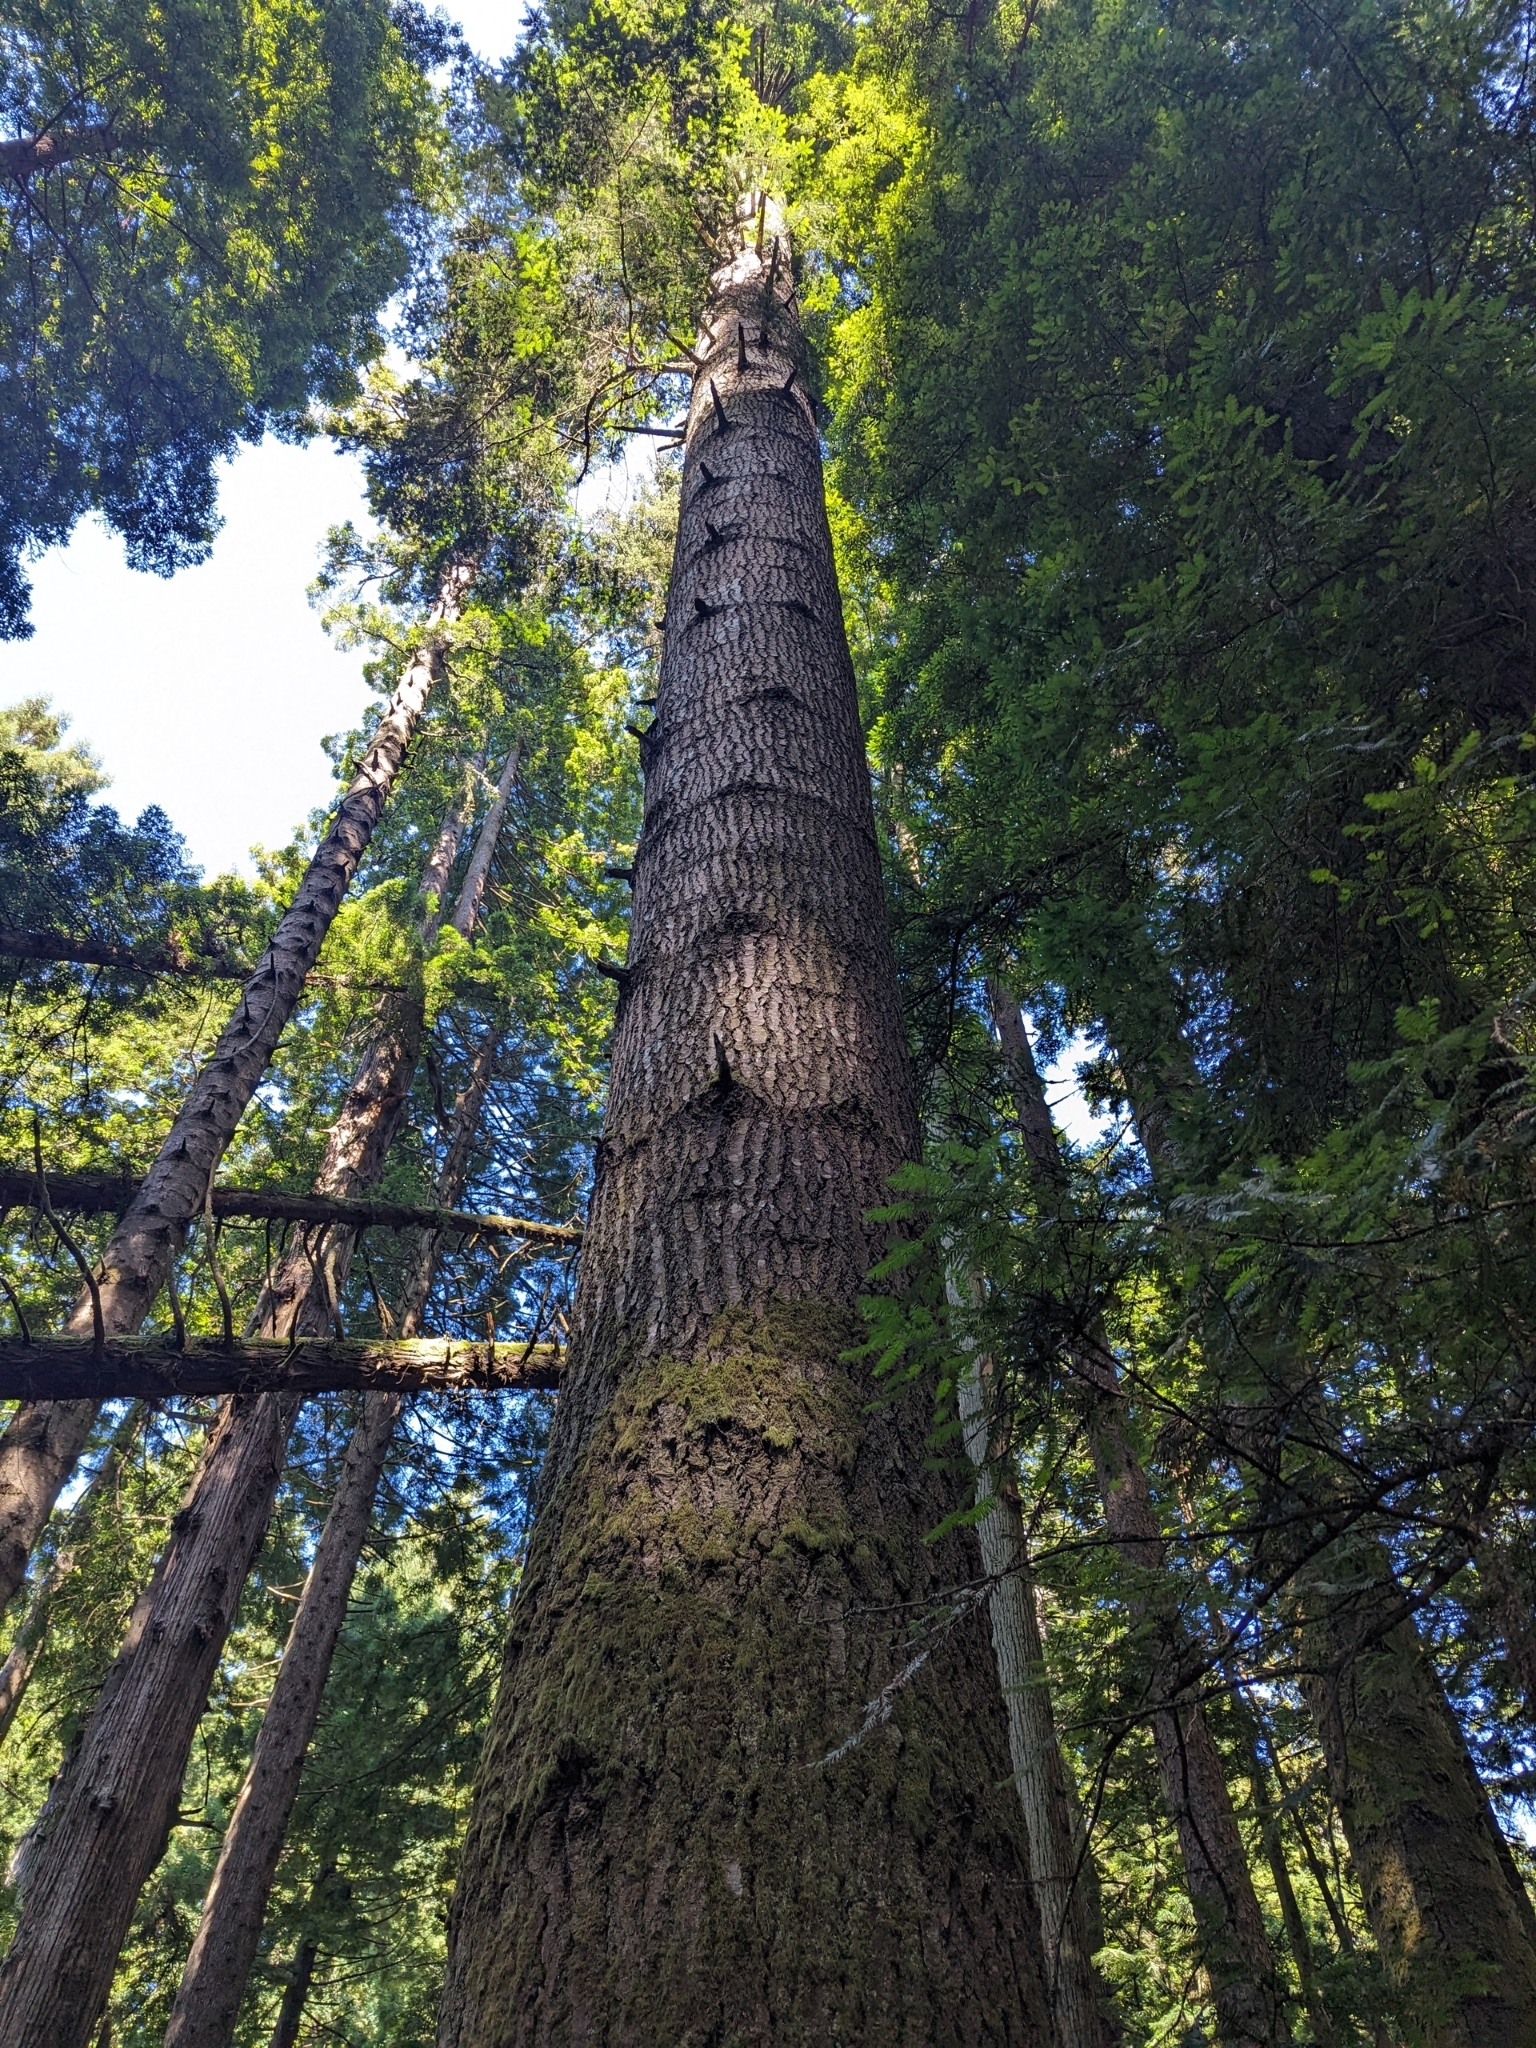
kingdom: Plantae
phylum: Tracheophyta
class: Pinopsida
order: Pinales
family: Pinaceae
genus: Abies
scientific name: Abies grandis
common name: Giant fir
